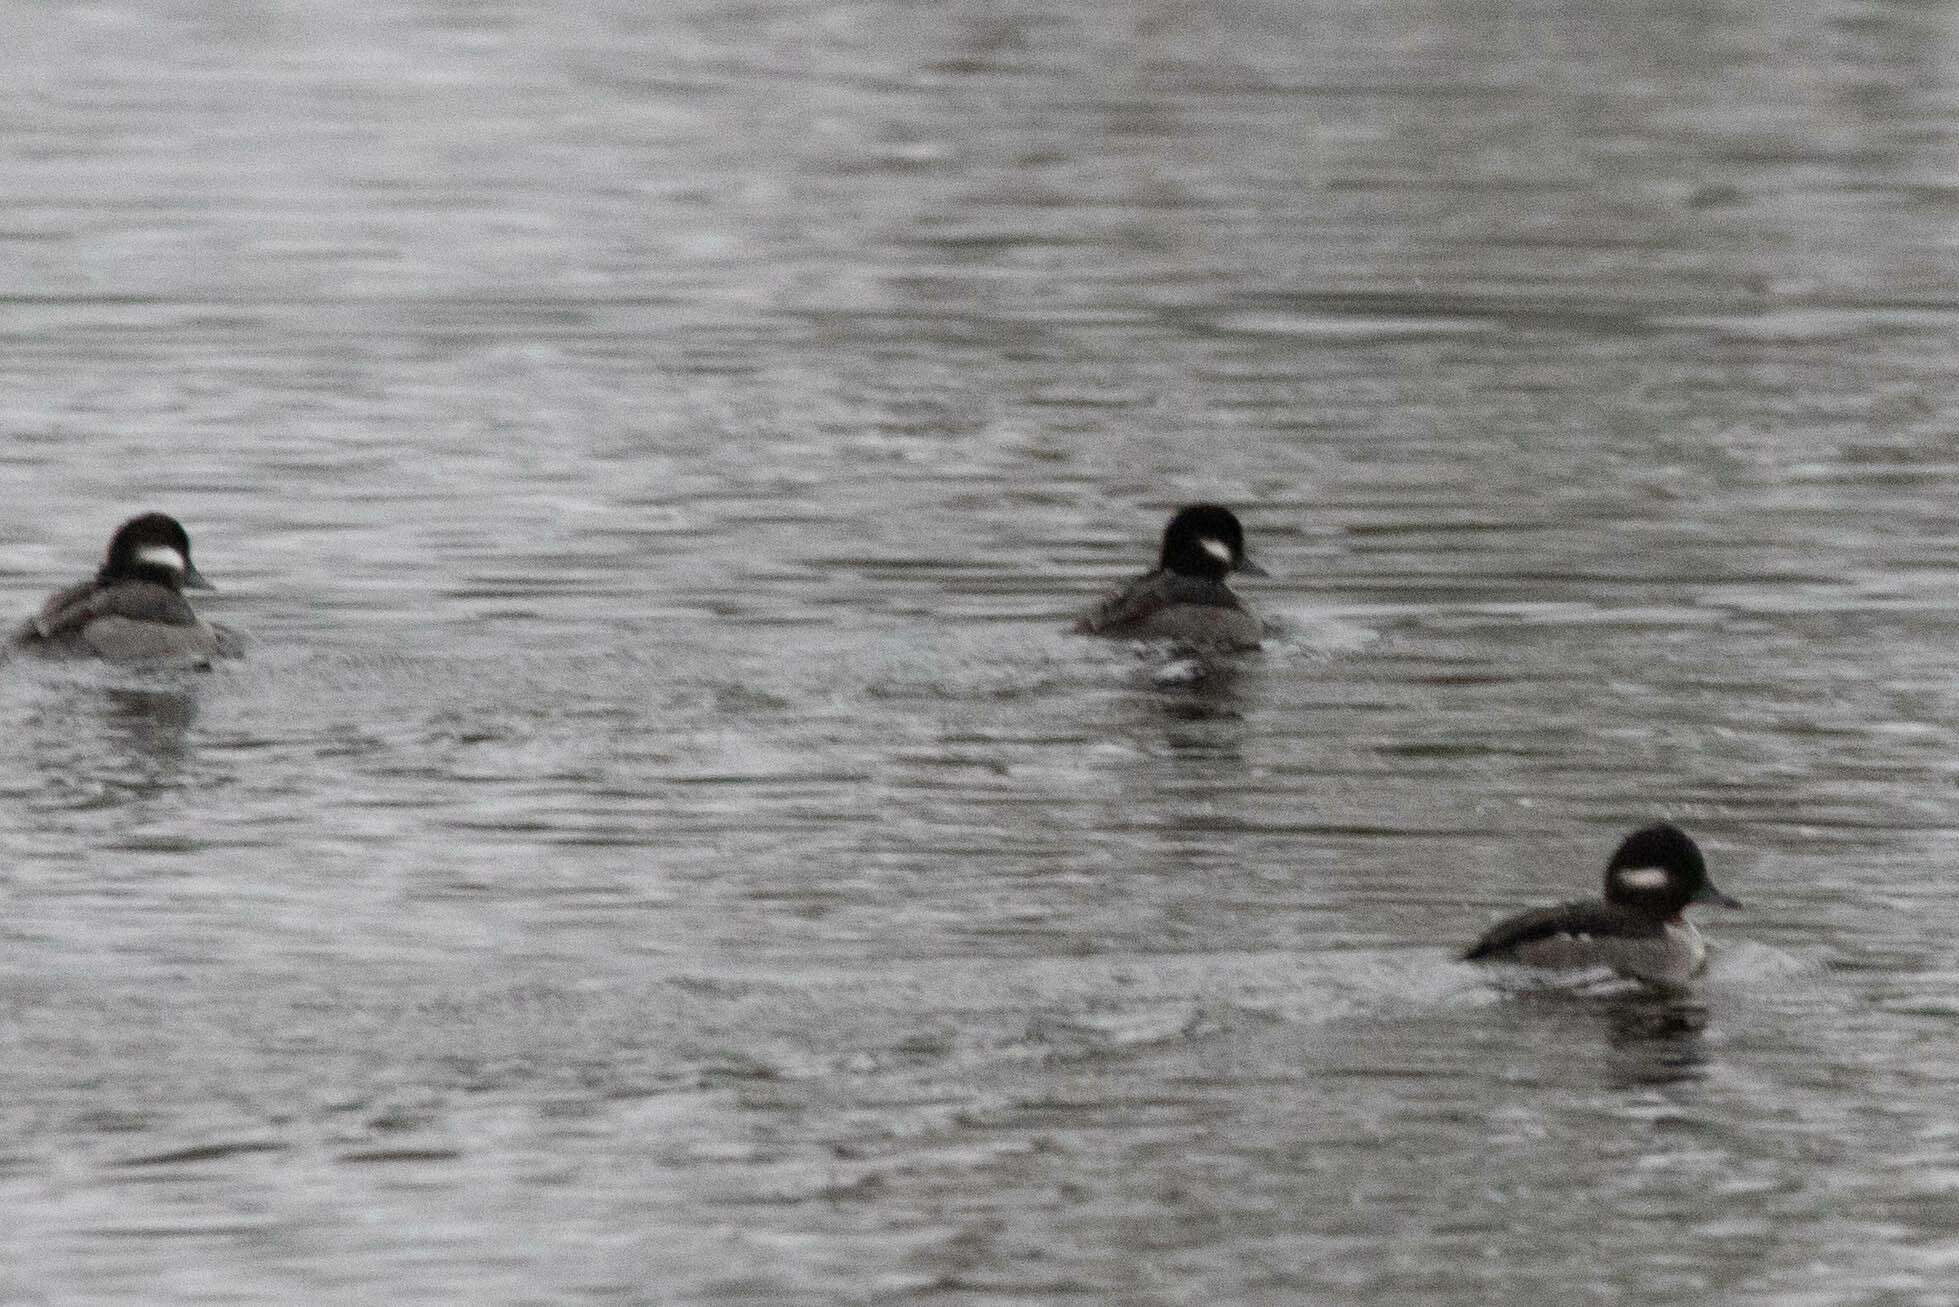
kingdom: Animalia
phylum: Chordata
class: Aves
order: Anseriformes
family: Anatidae
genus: Bucephala
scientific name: Bucephala albeola
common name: Bufflehead
